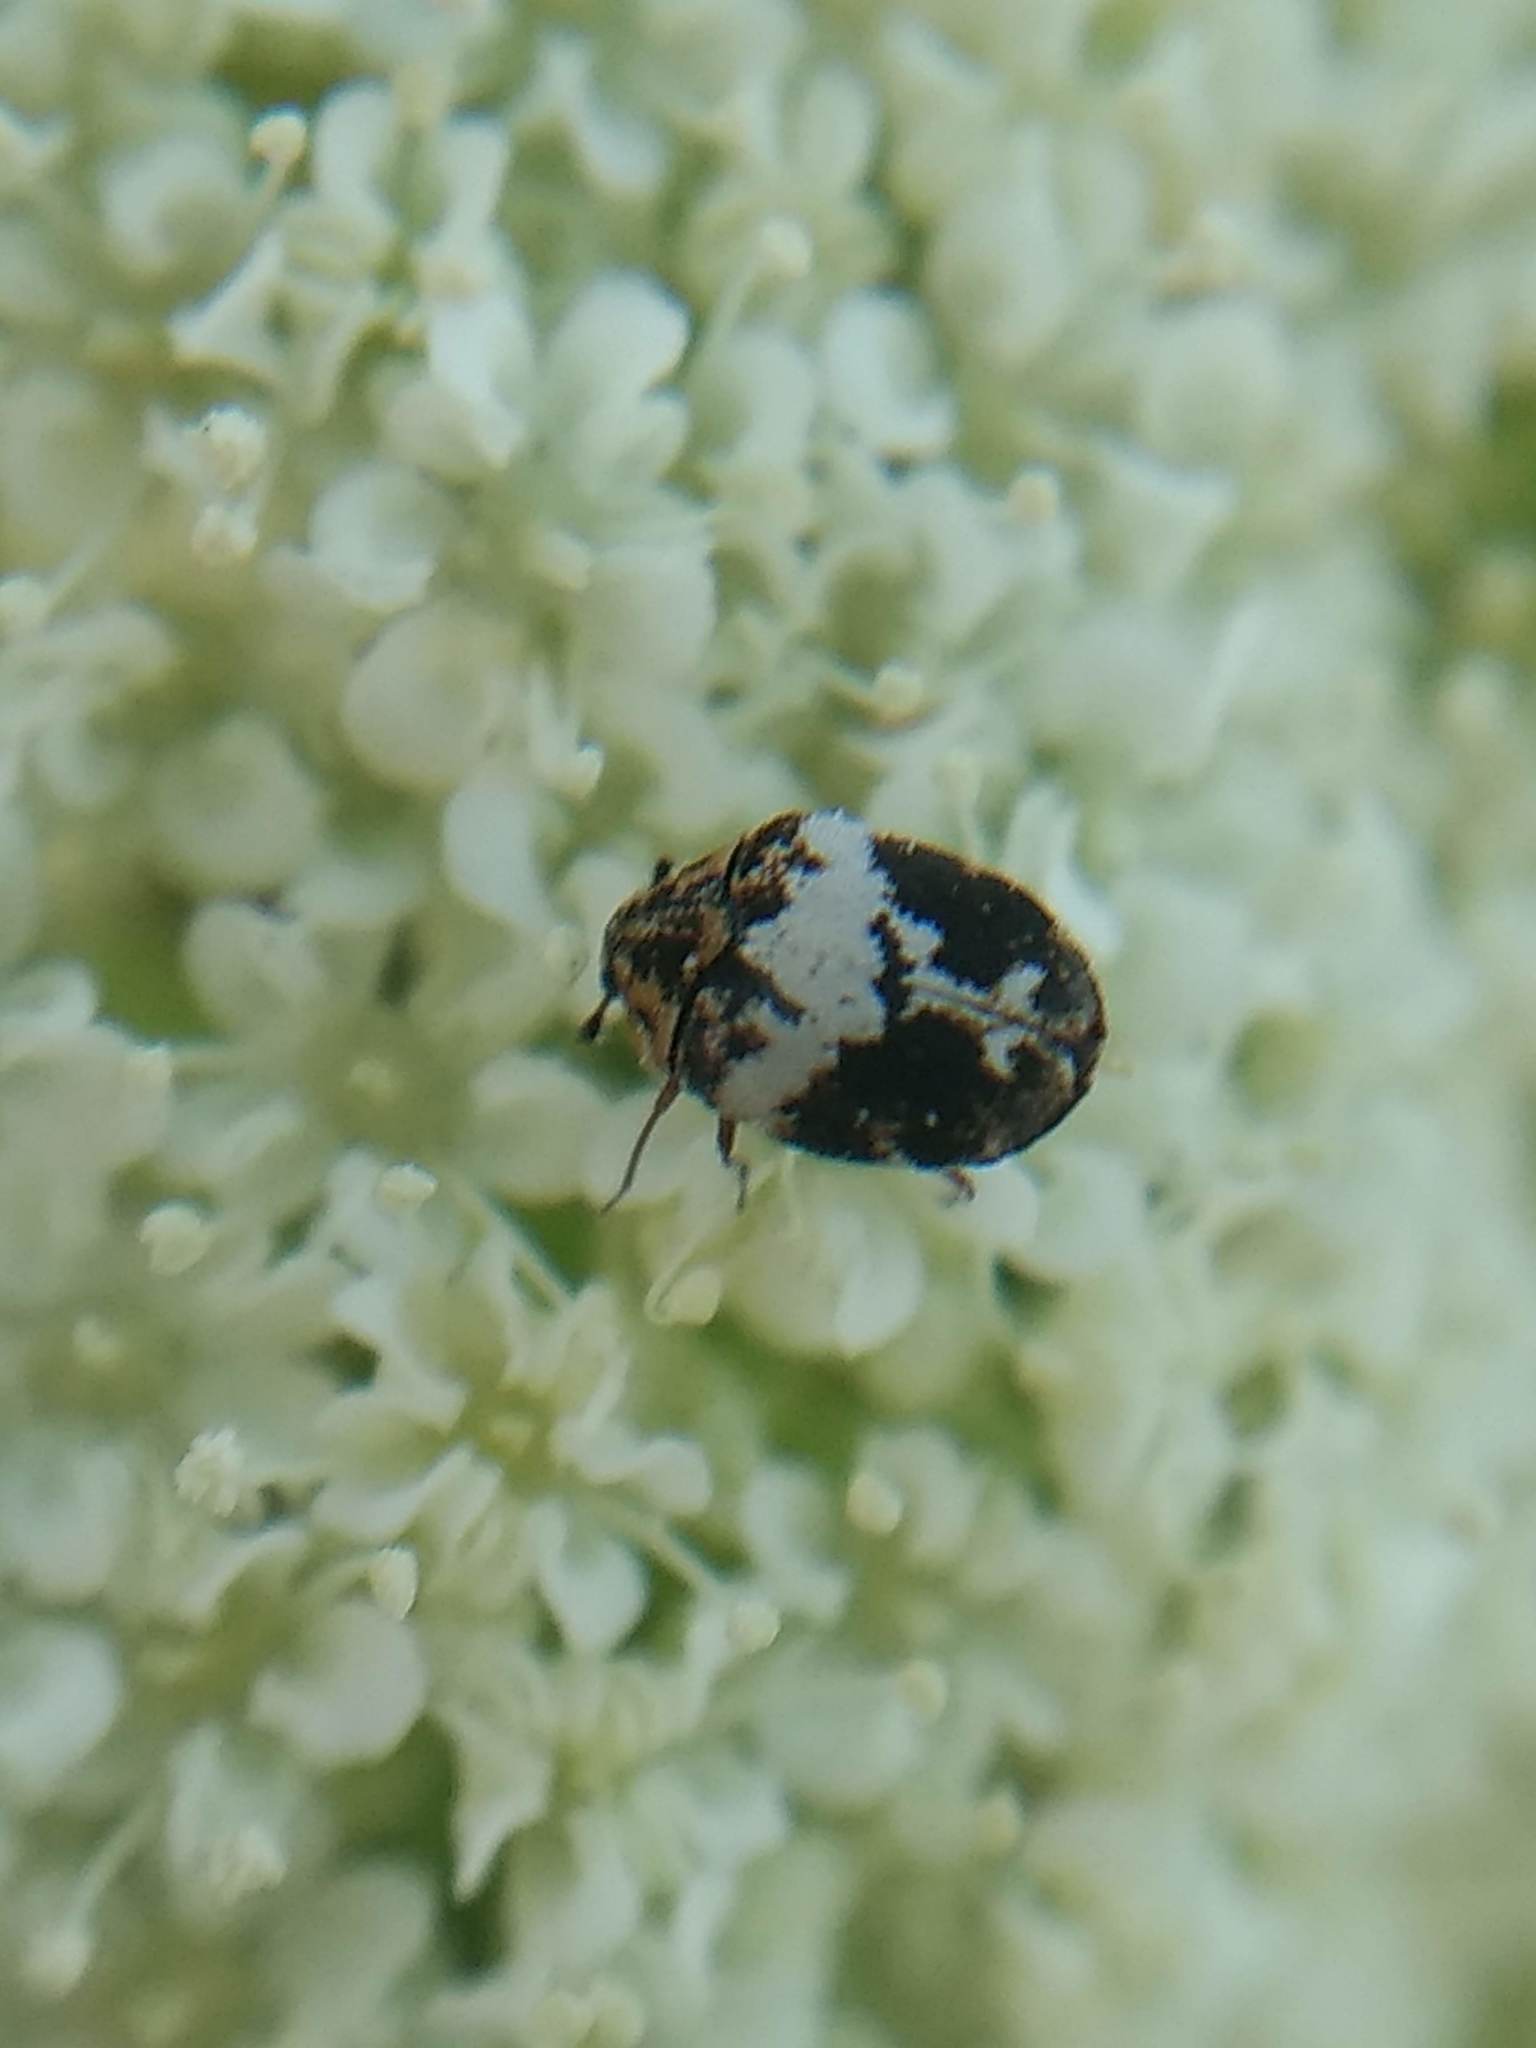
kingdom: Animalia
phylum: Arthropoda
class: Insecta
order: Coleoptera
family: Dermestidae
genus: Anthrenus
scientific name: Anthrenus sophonisba
